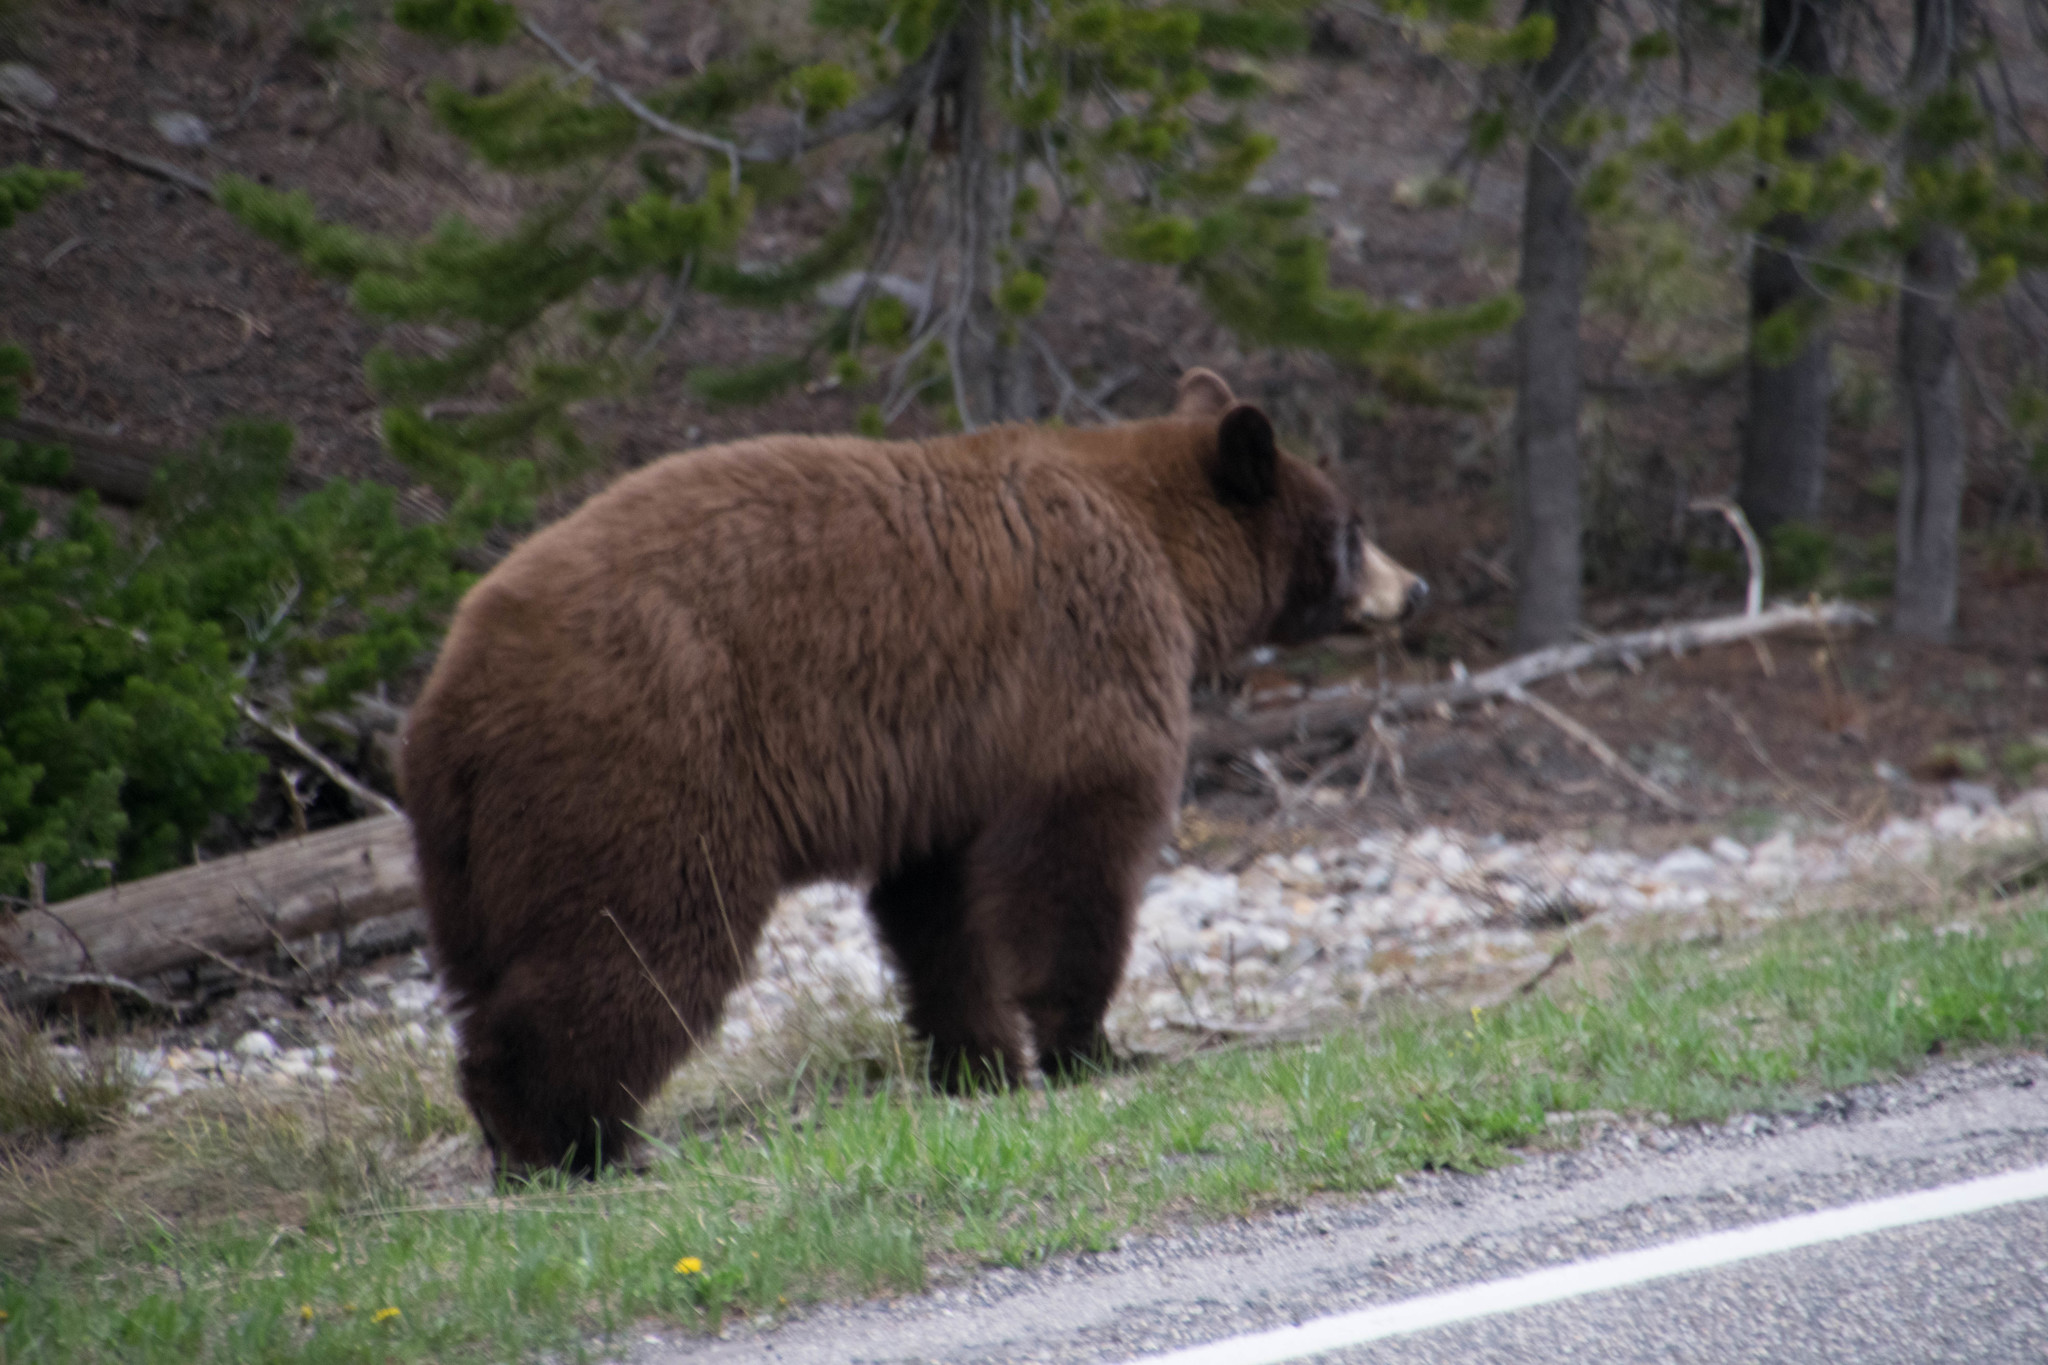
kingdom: Animalia
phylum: Chordata
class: Mammalia
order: Carnivora
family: Ursidae
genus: Ursus
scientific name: Ursus americanus
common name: American black bear
